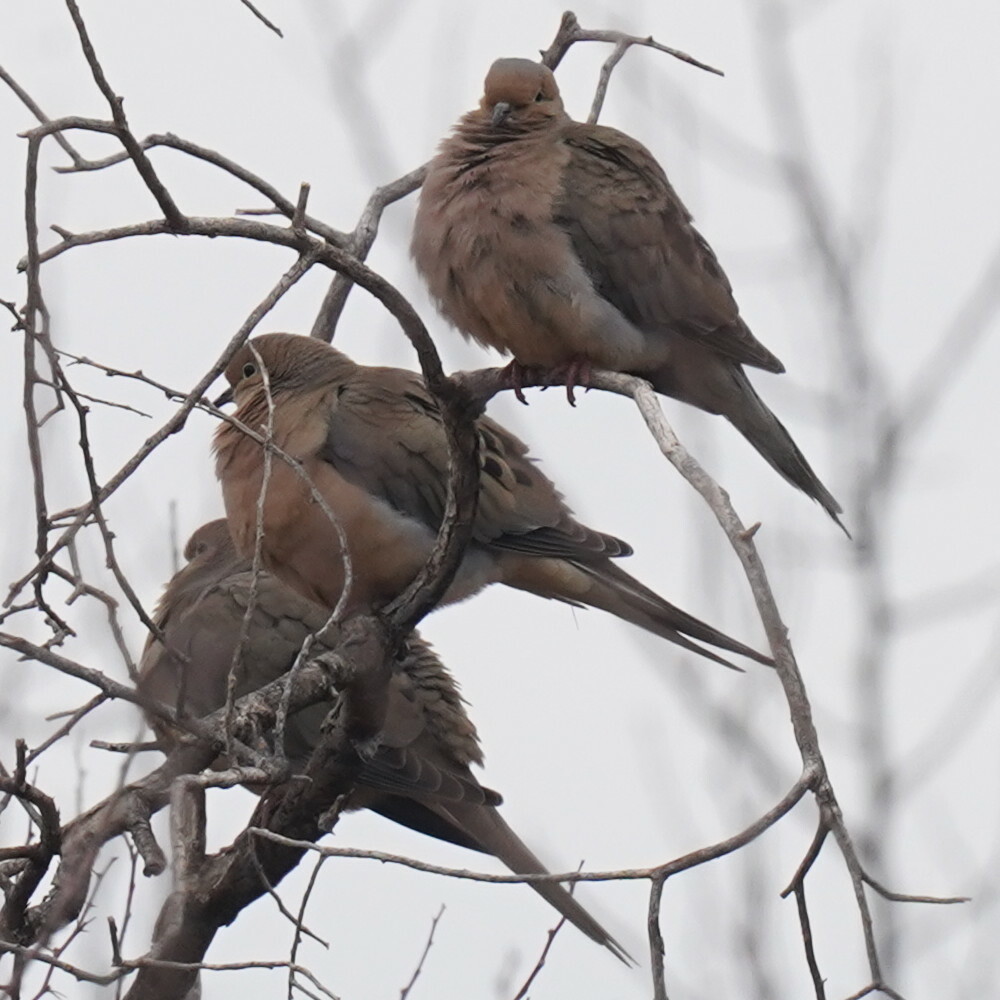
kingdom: Animalia
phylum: Chordata
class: Aves
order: Columbiformes
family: Columbidae
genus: Zenaida
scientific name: Zenaida macroura
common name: Mourning dove
